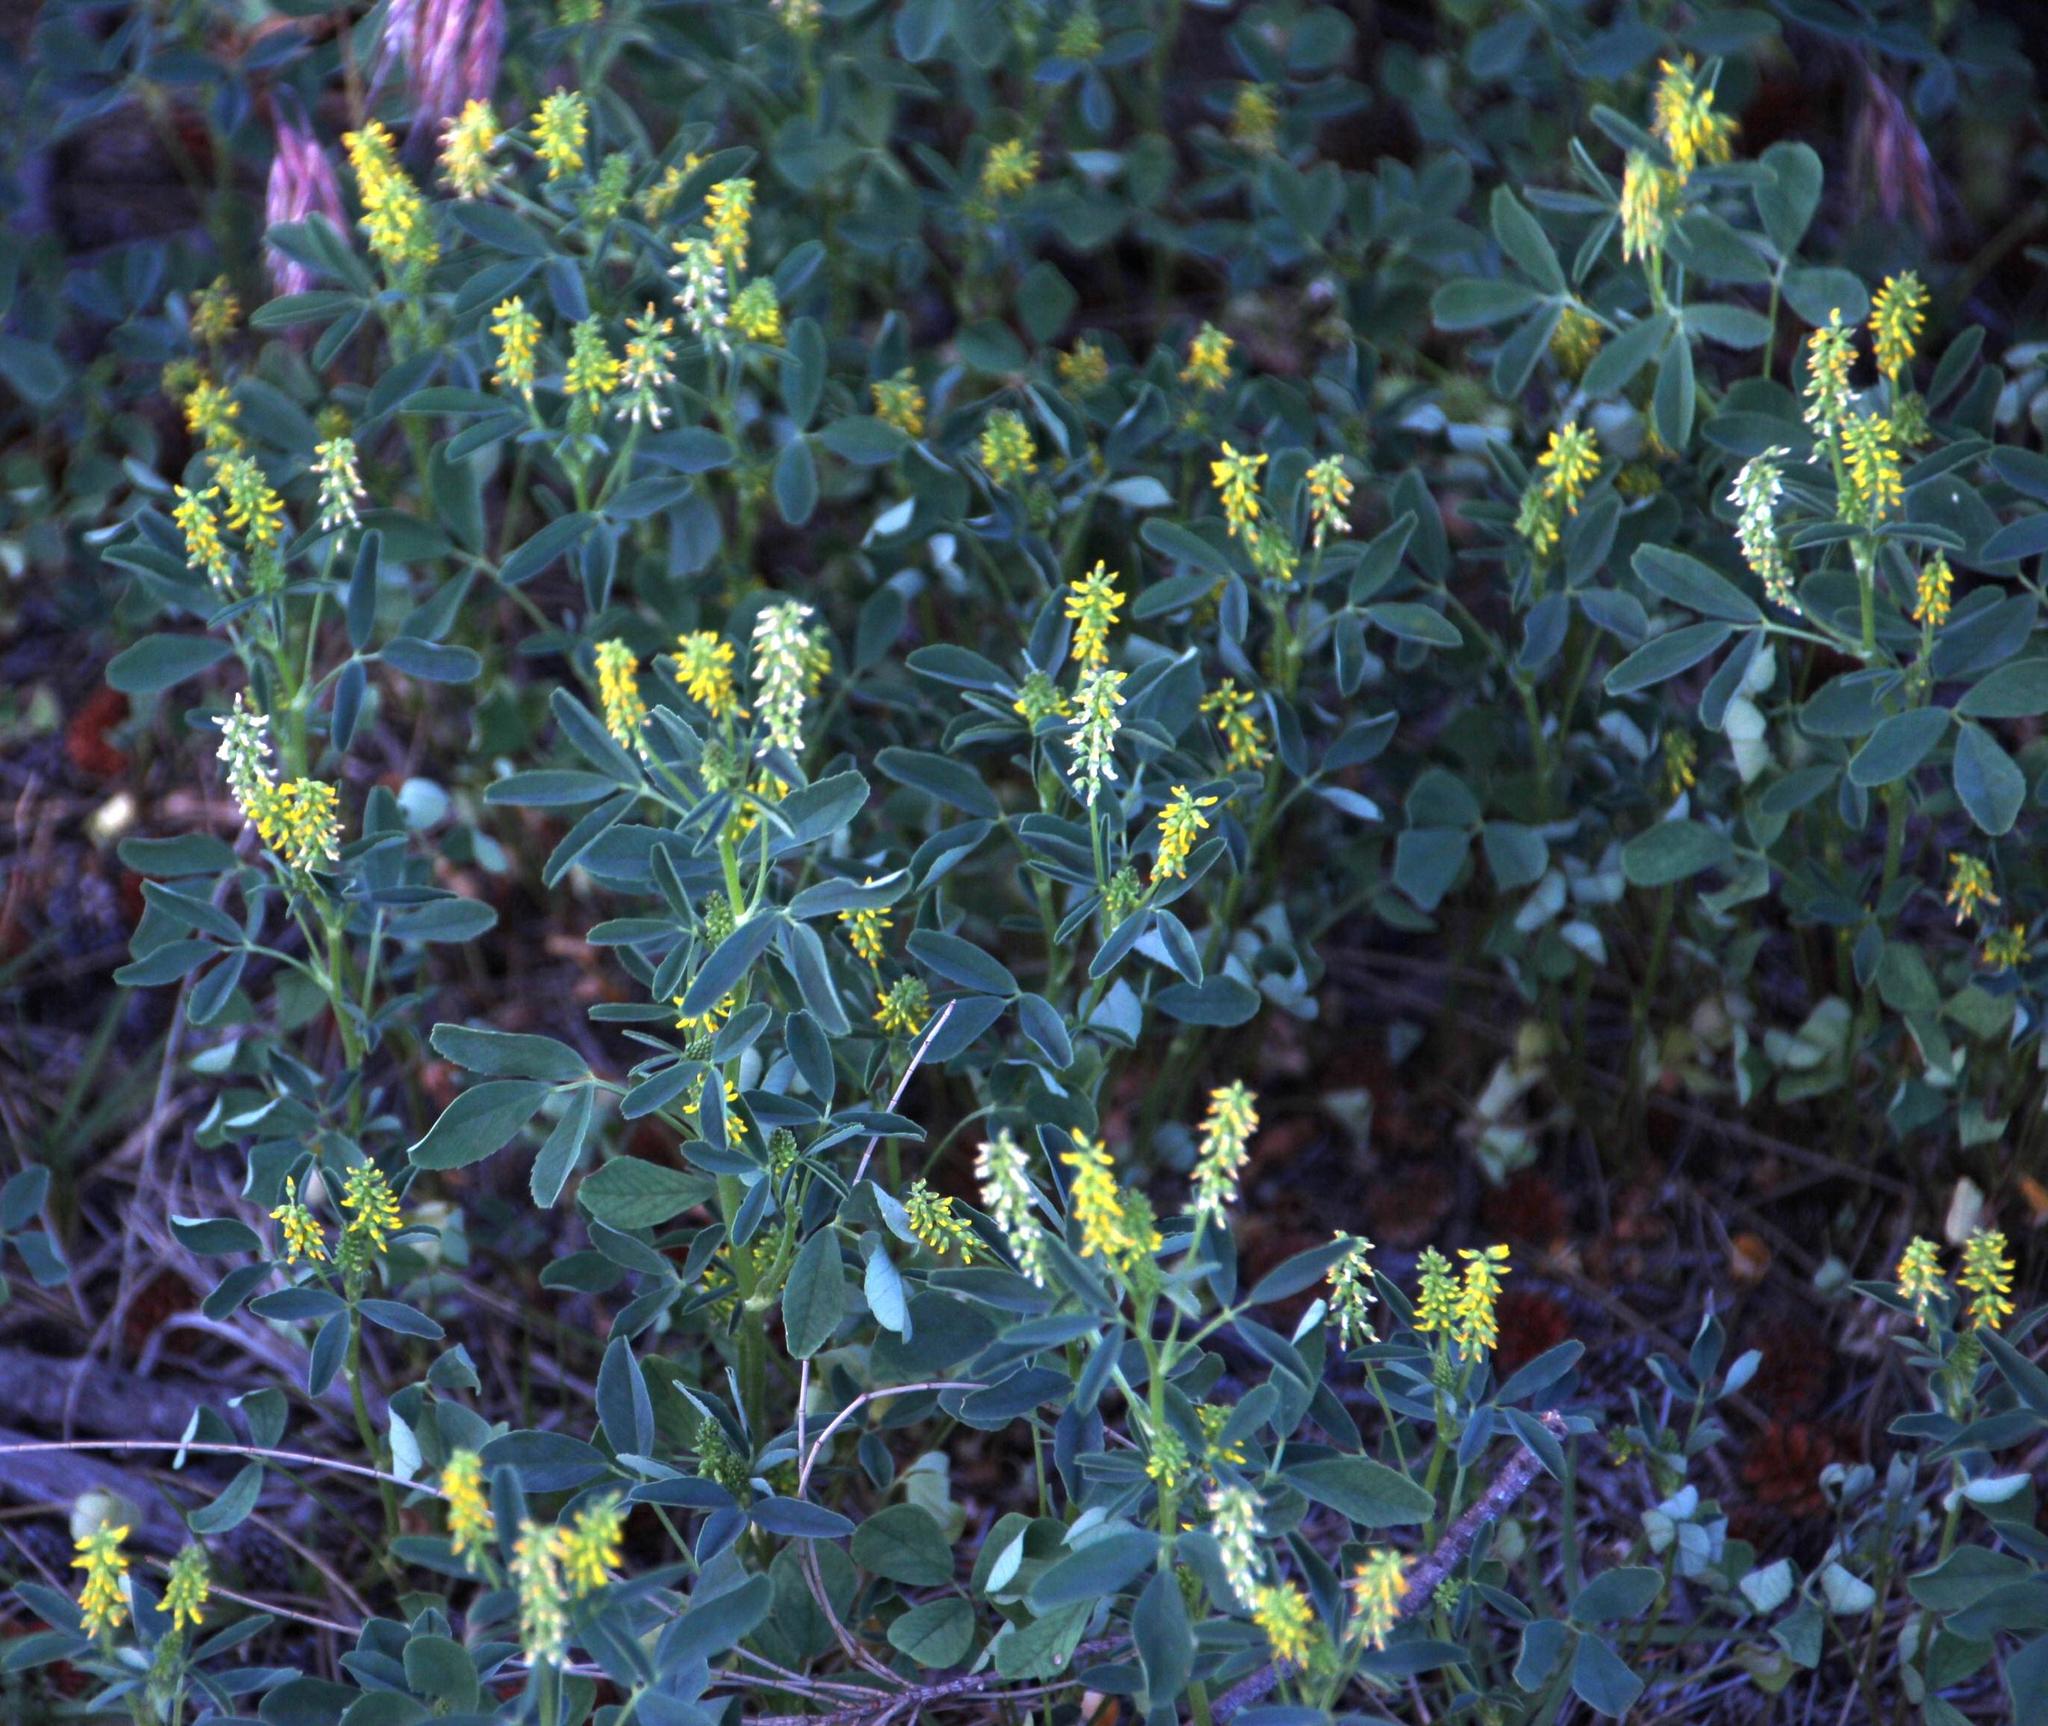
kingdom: Plantae
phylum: Tracheophyta
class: Magnoliopsida
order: Fabales
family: Fabaceae
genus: Melilotus
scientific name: Melilotus indicus
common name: Small melilot
